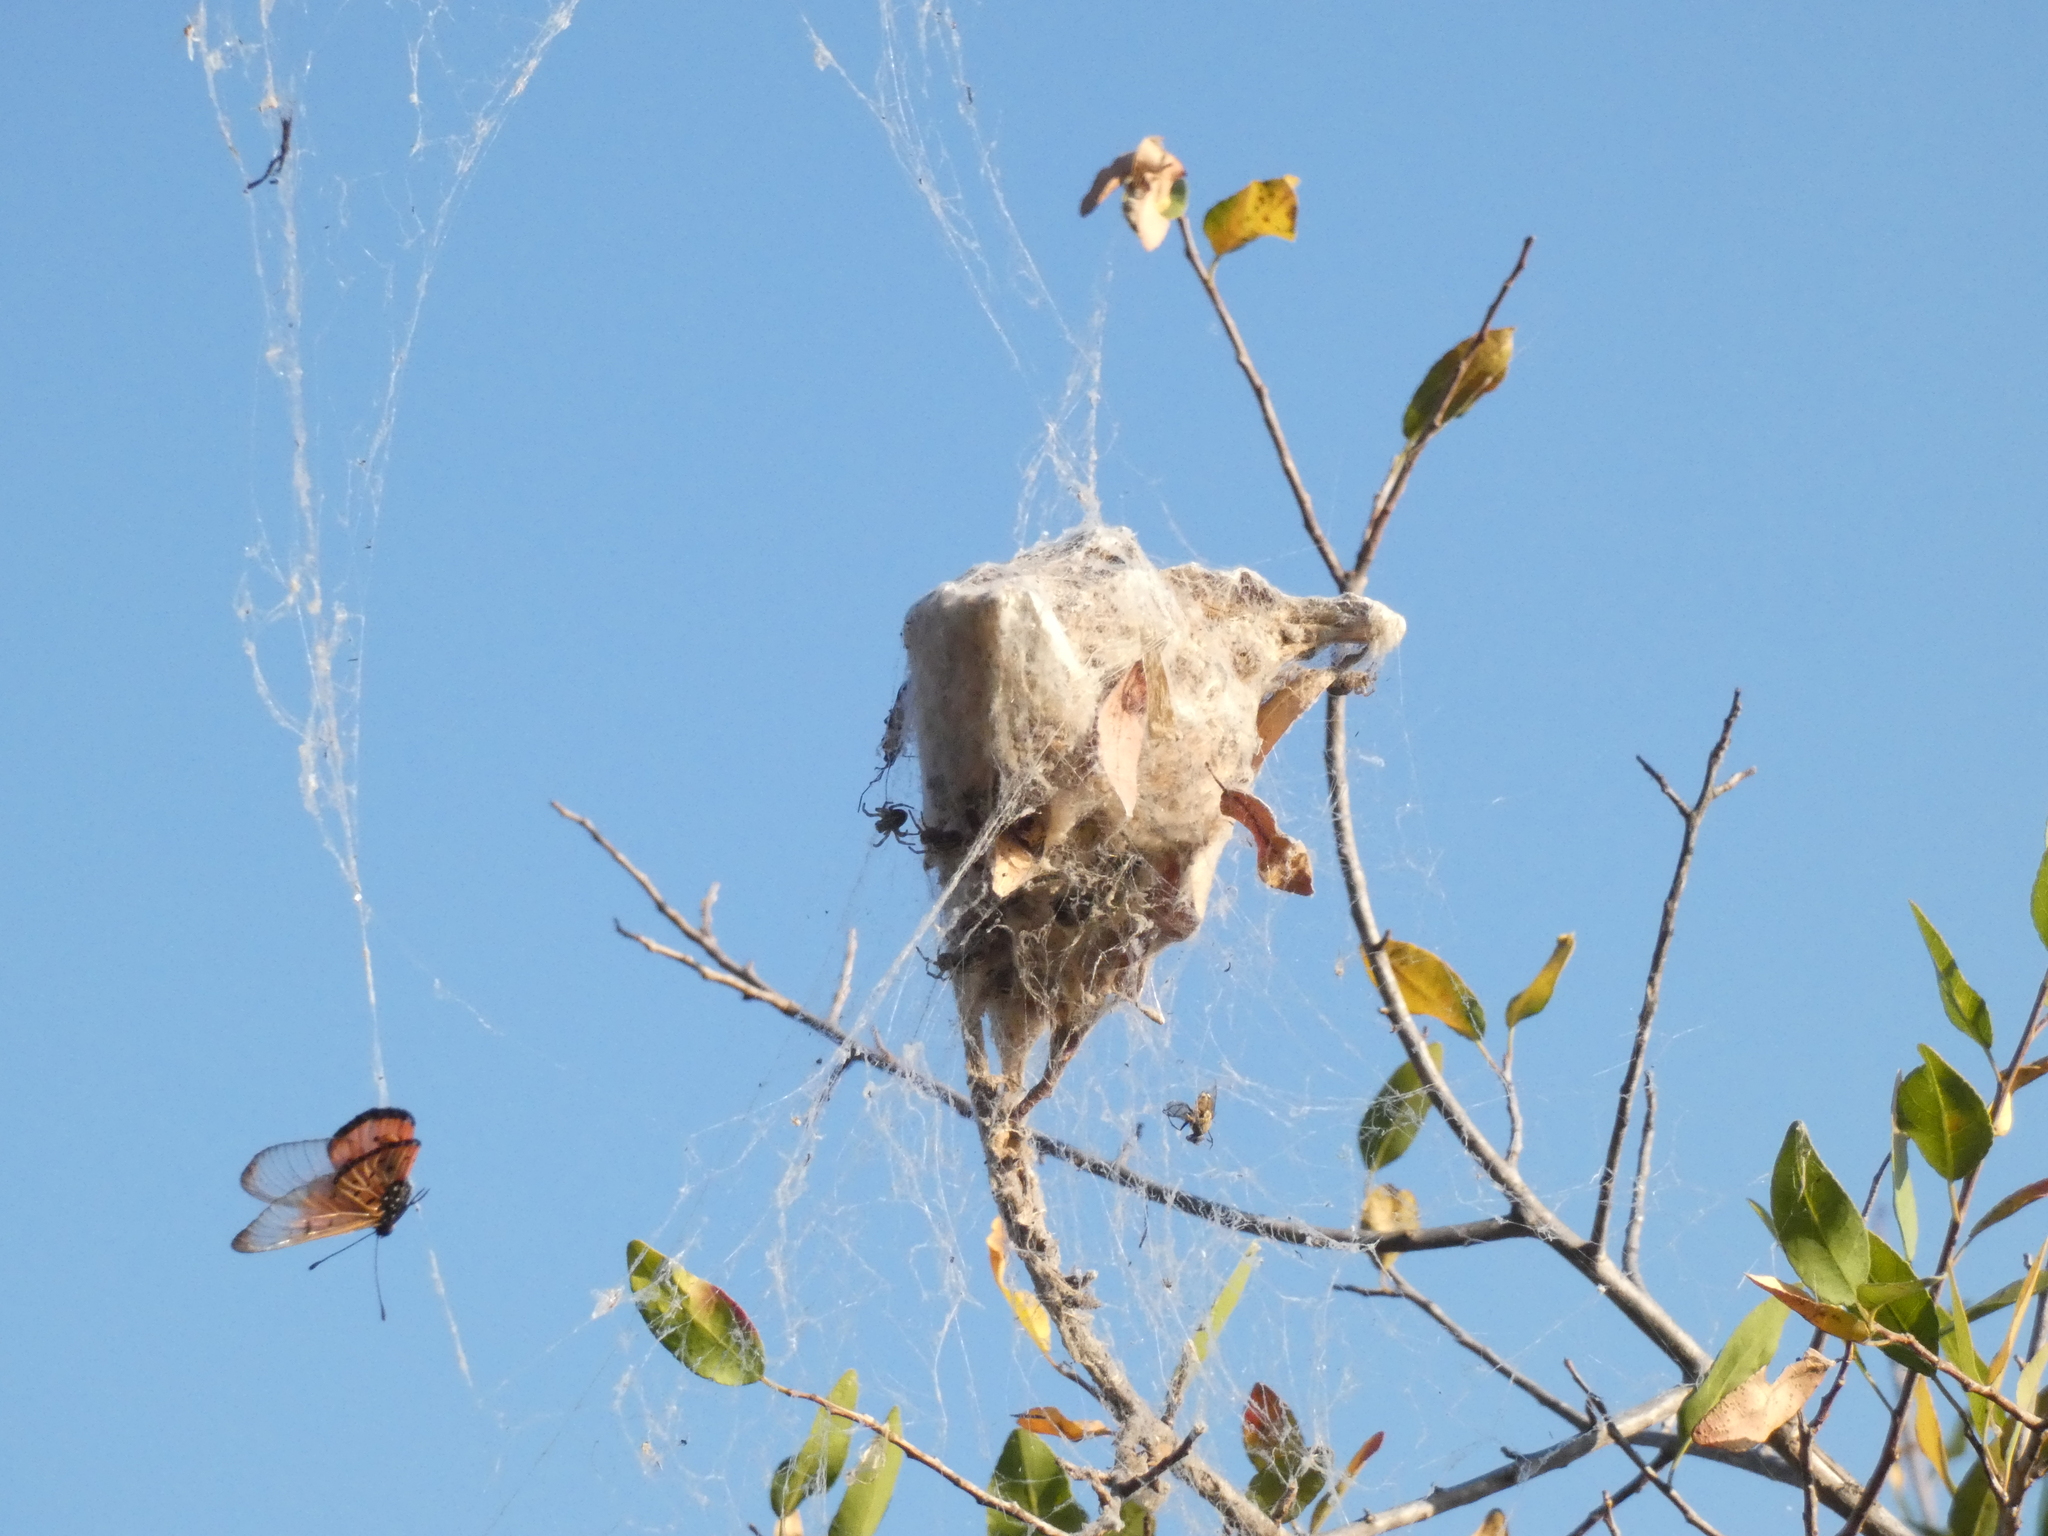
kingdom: Animalia
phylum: Arthropoda
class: Arachnida
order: Araneae
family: Eresidae
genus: Stegodyphus
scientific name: Stegodyphus dumicola
